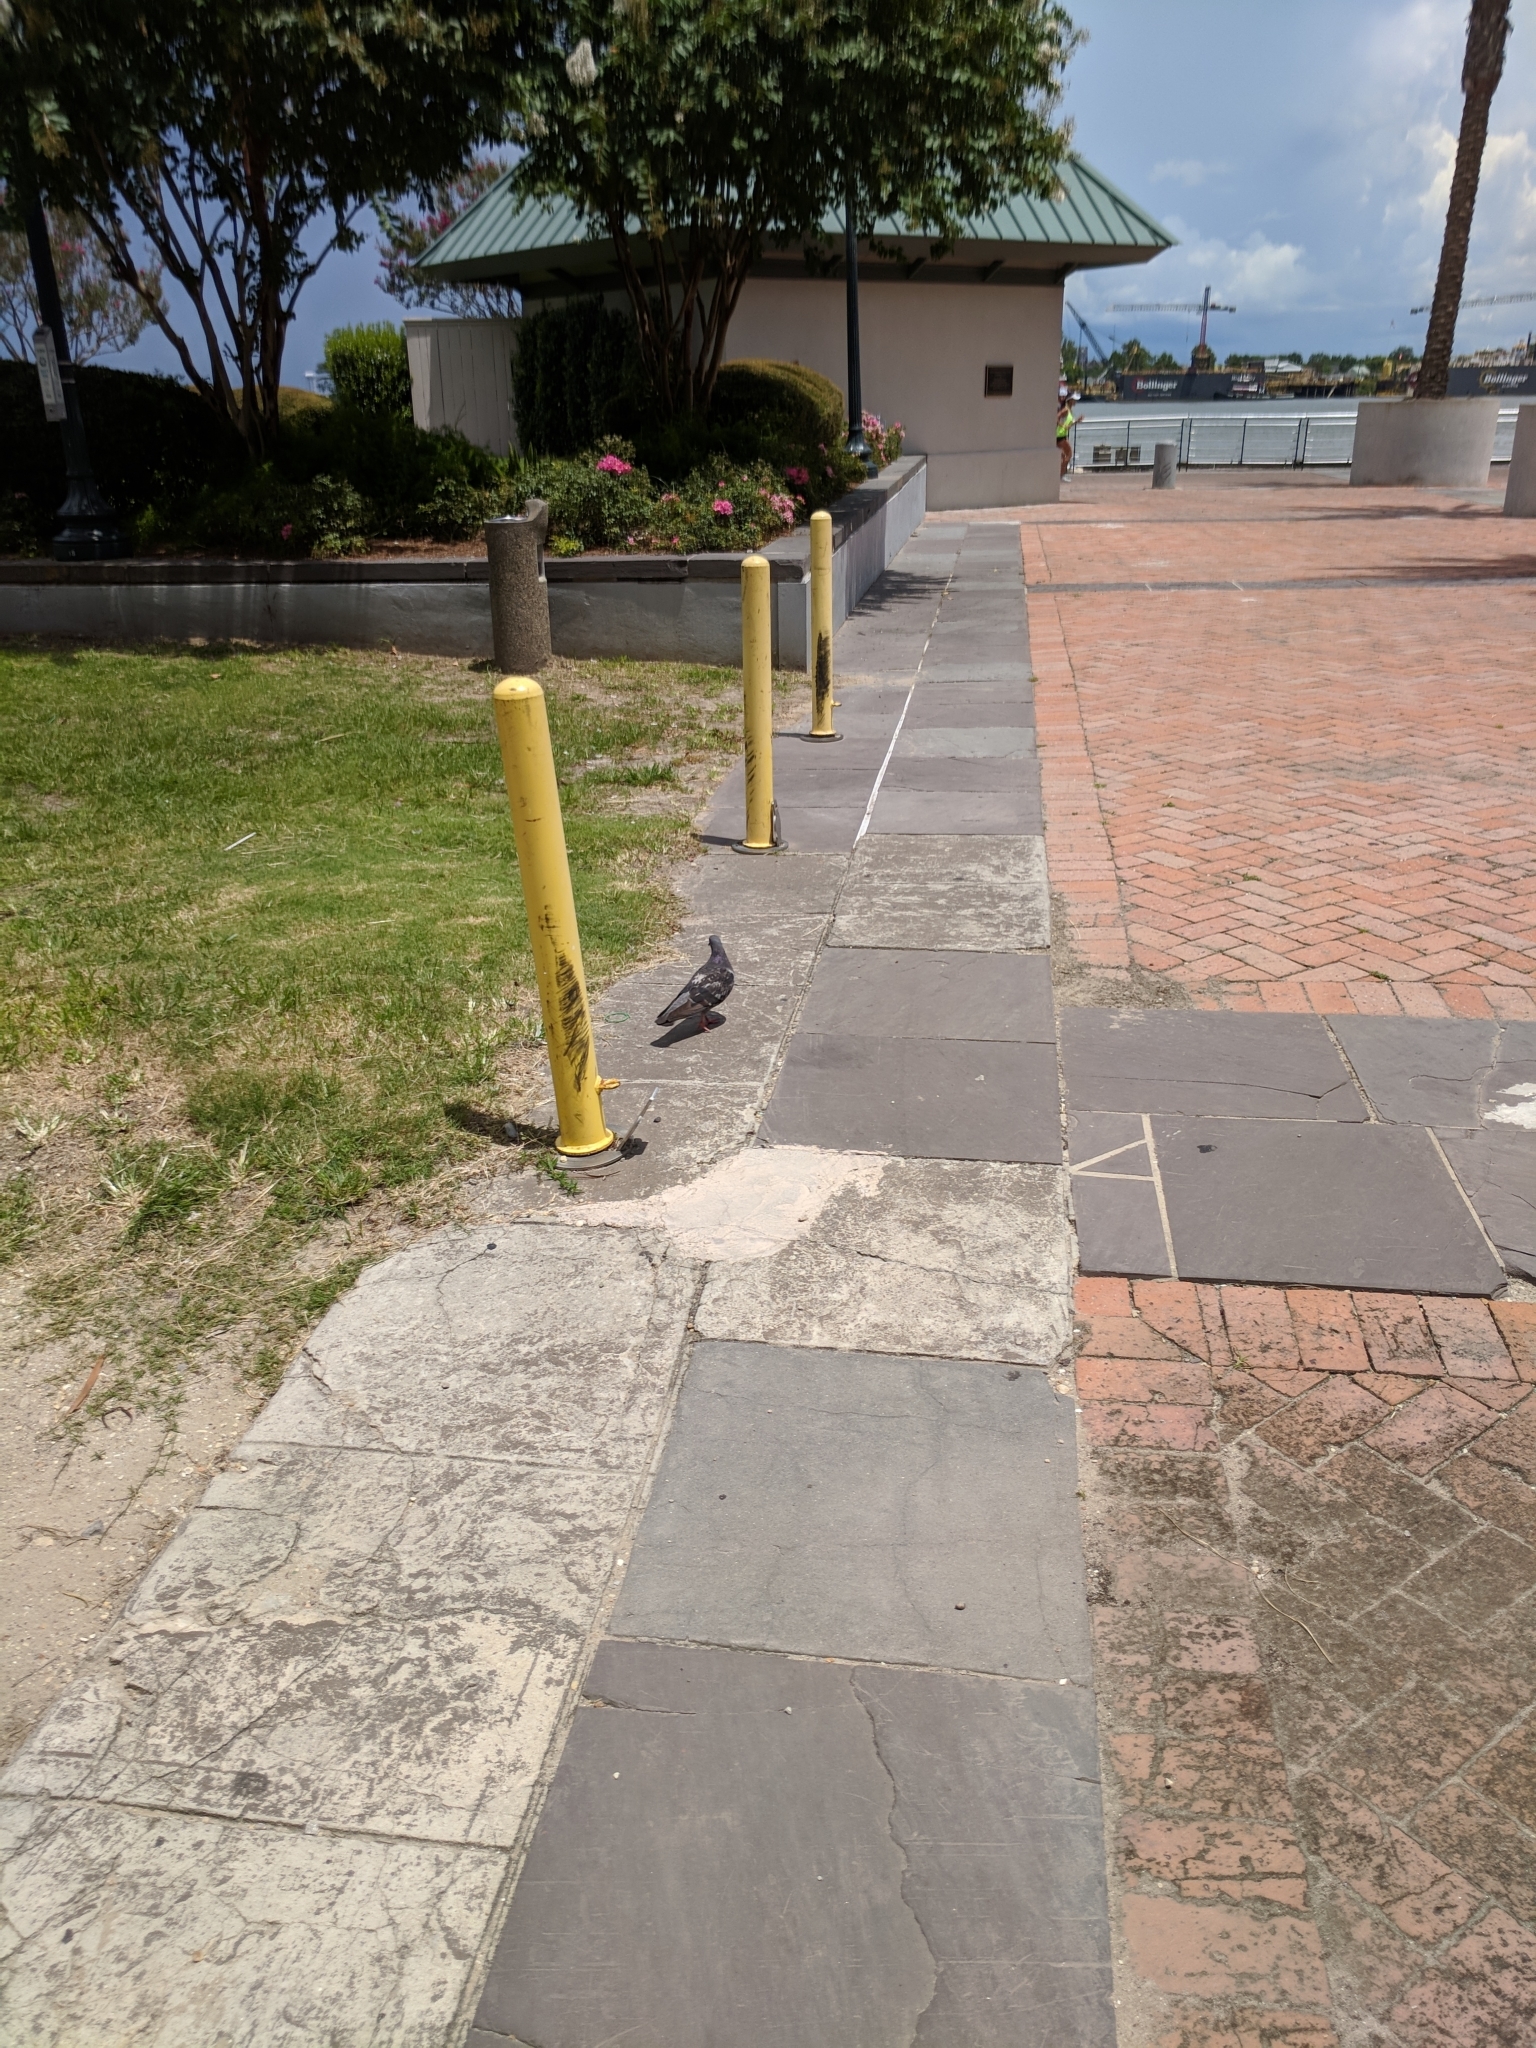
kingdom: Animalia
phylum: Chordata
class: Aves
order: Columbiformes
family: Columbidae
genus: Columba
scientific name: Columba livia
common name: Rock pigeon
